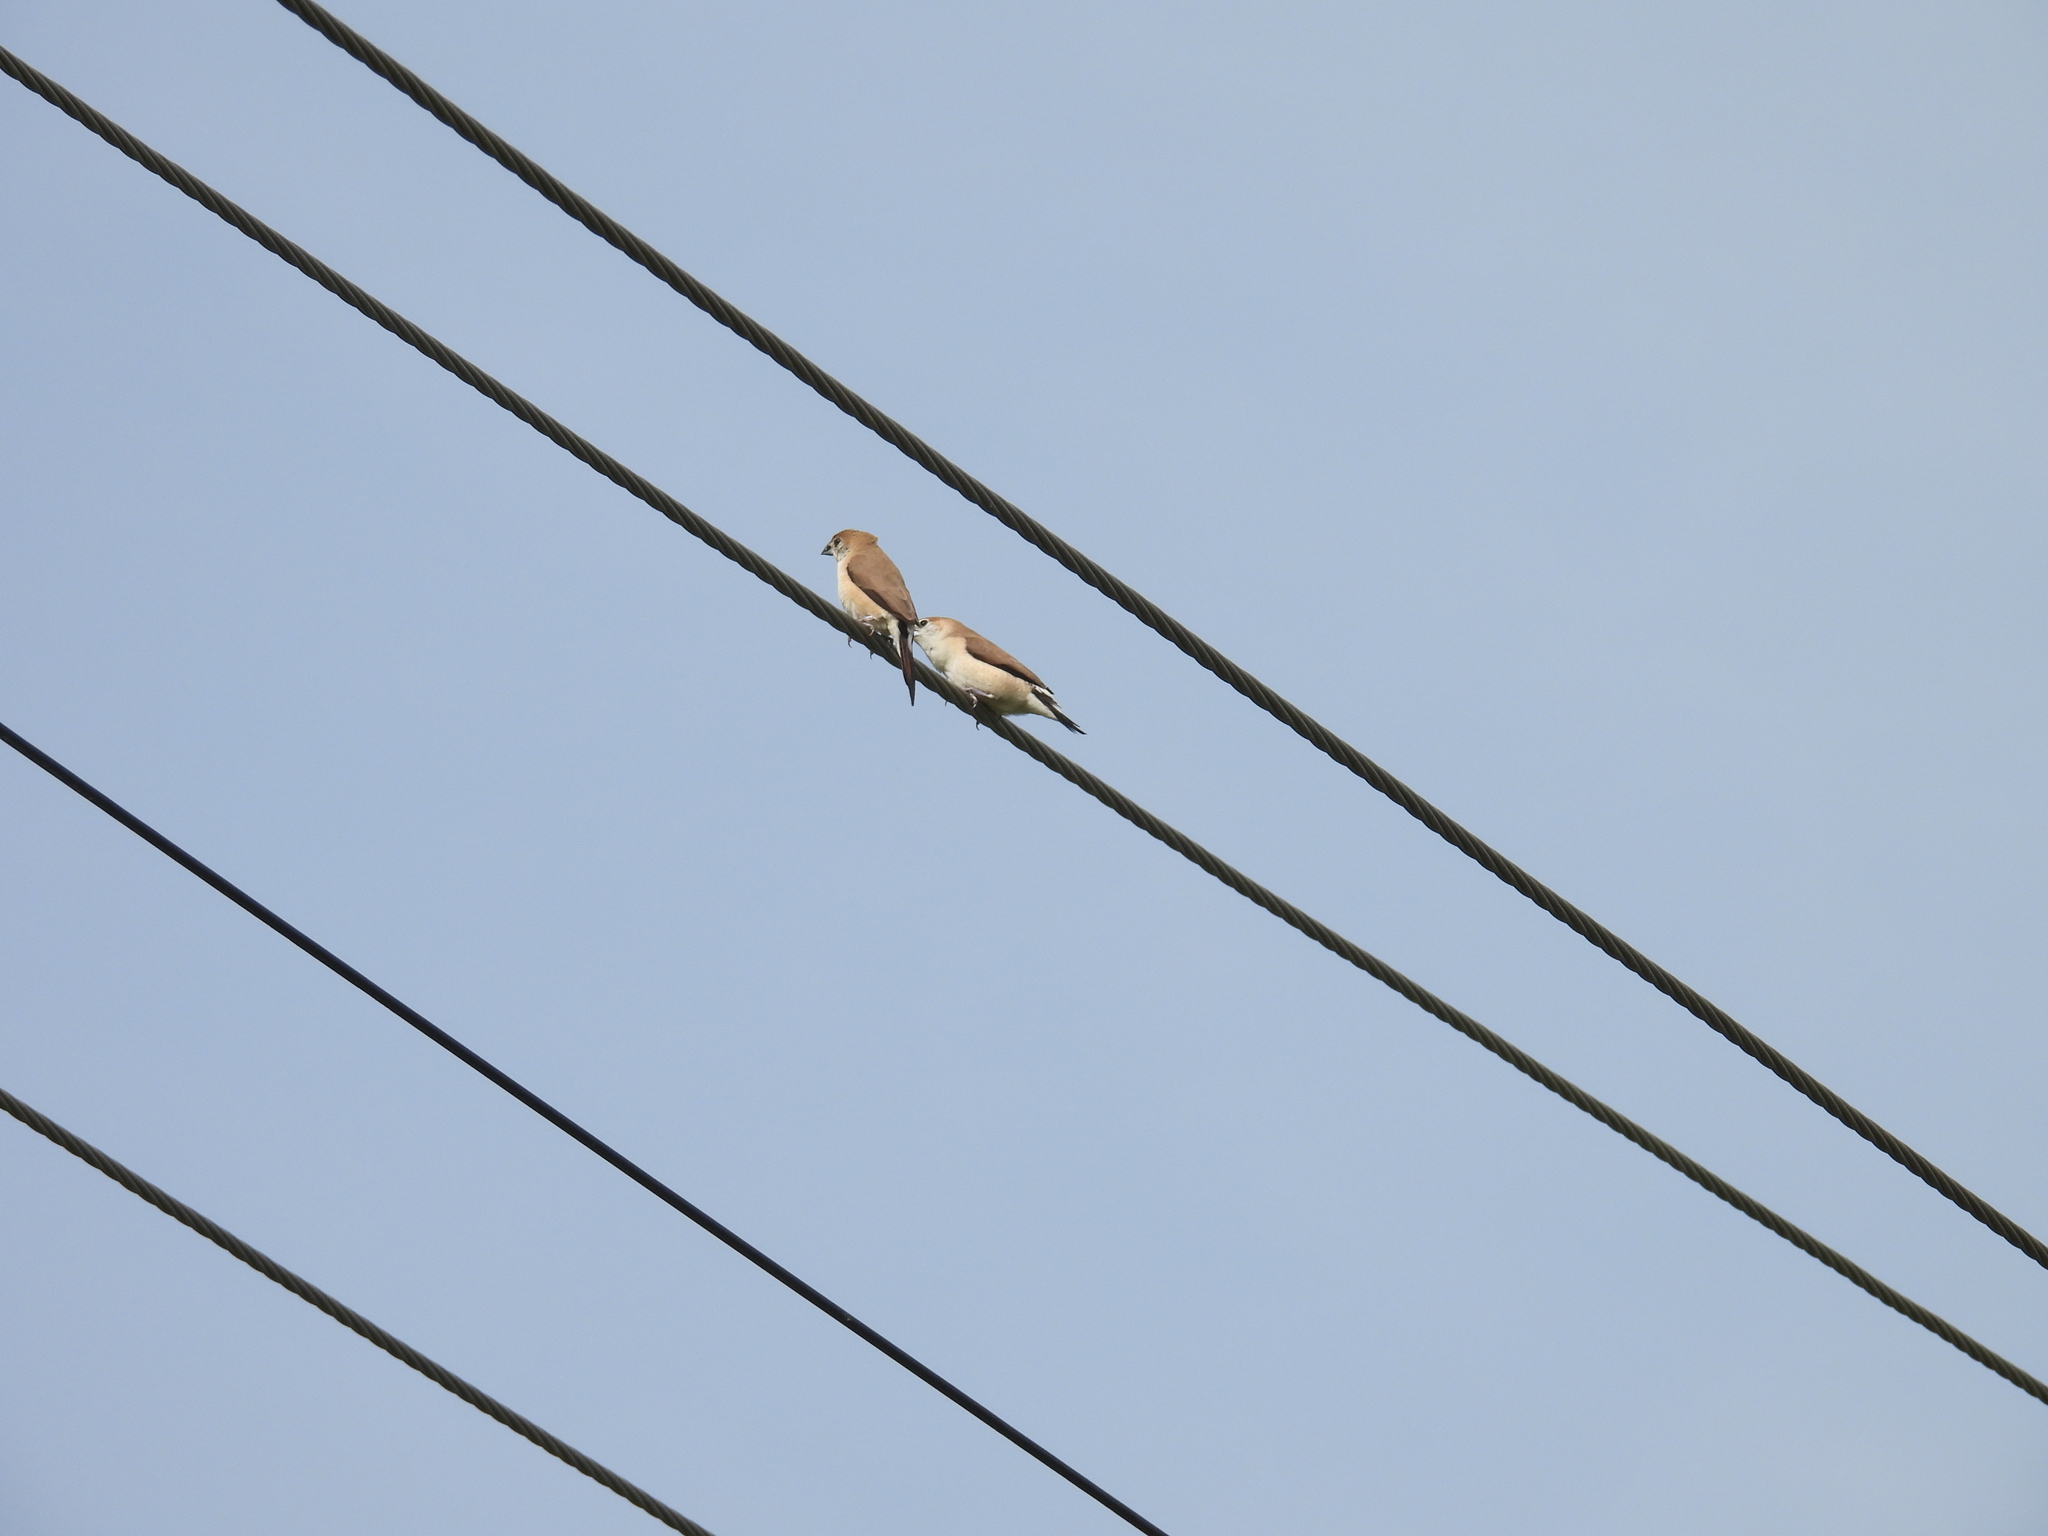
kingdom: Animalia
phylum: Chordata
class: Aves
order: Passeriformes
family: Estrildidae
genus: Euodice
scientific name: Euodice malabarica
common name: Indian silverbill
